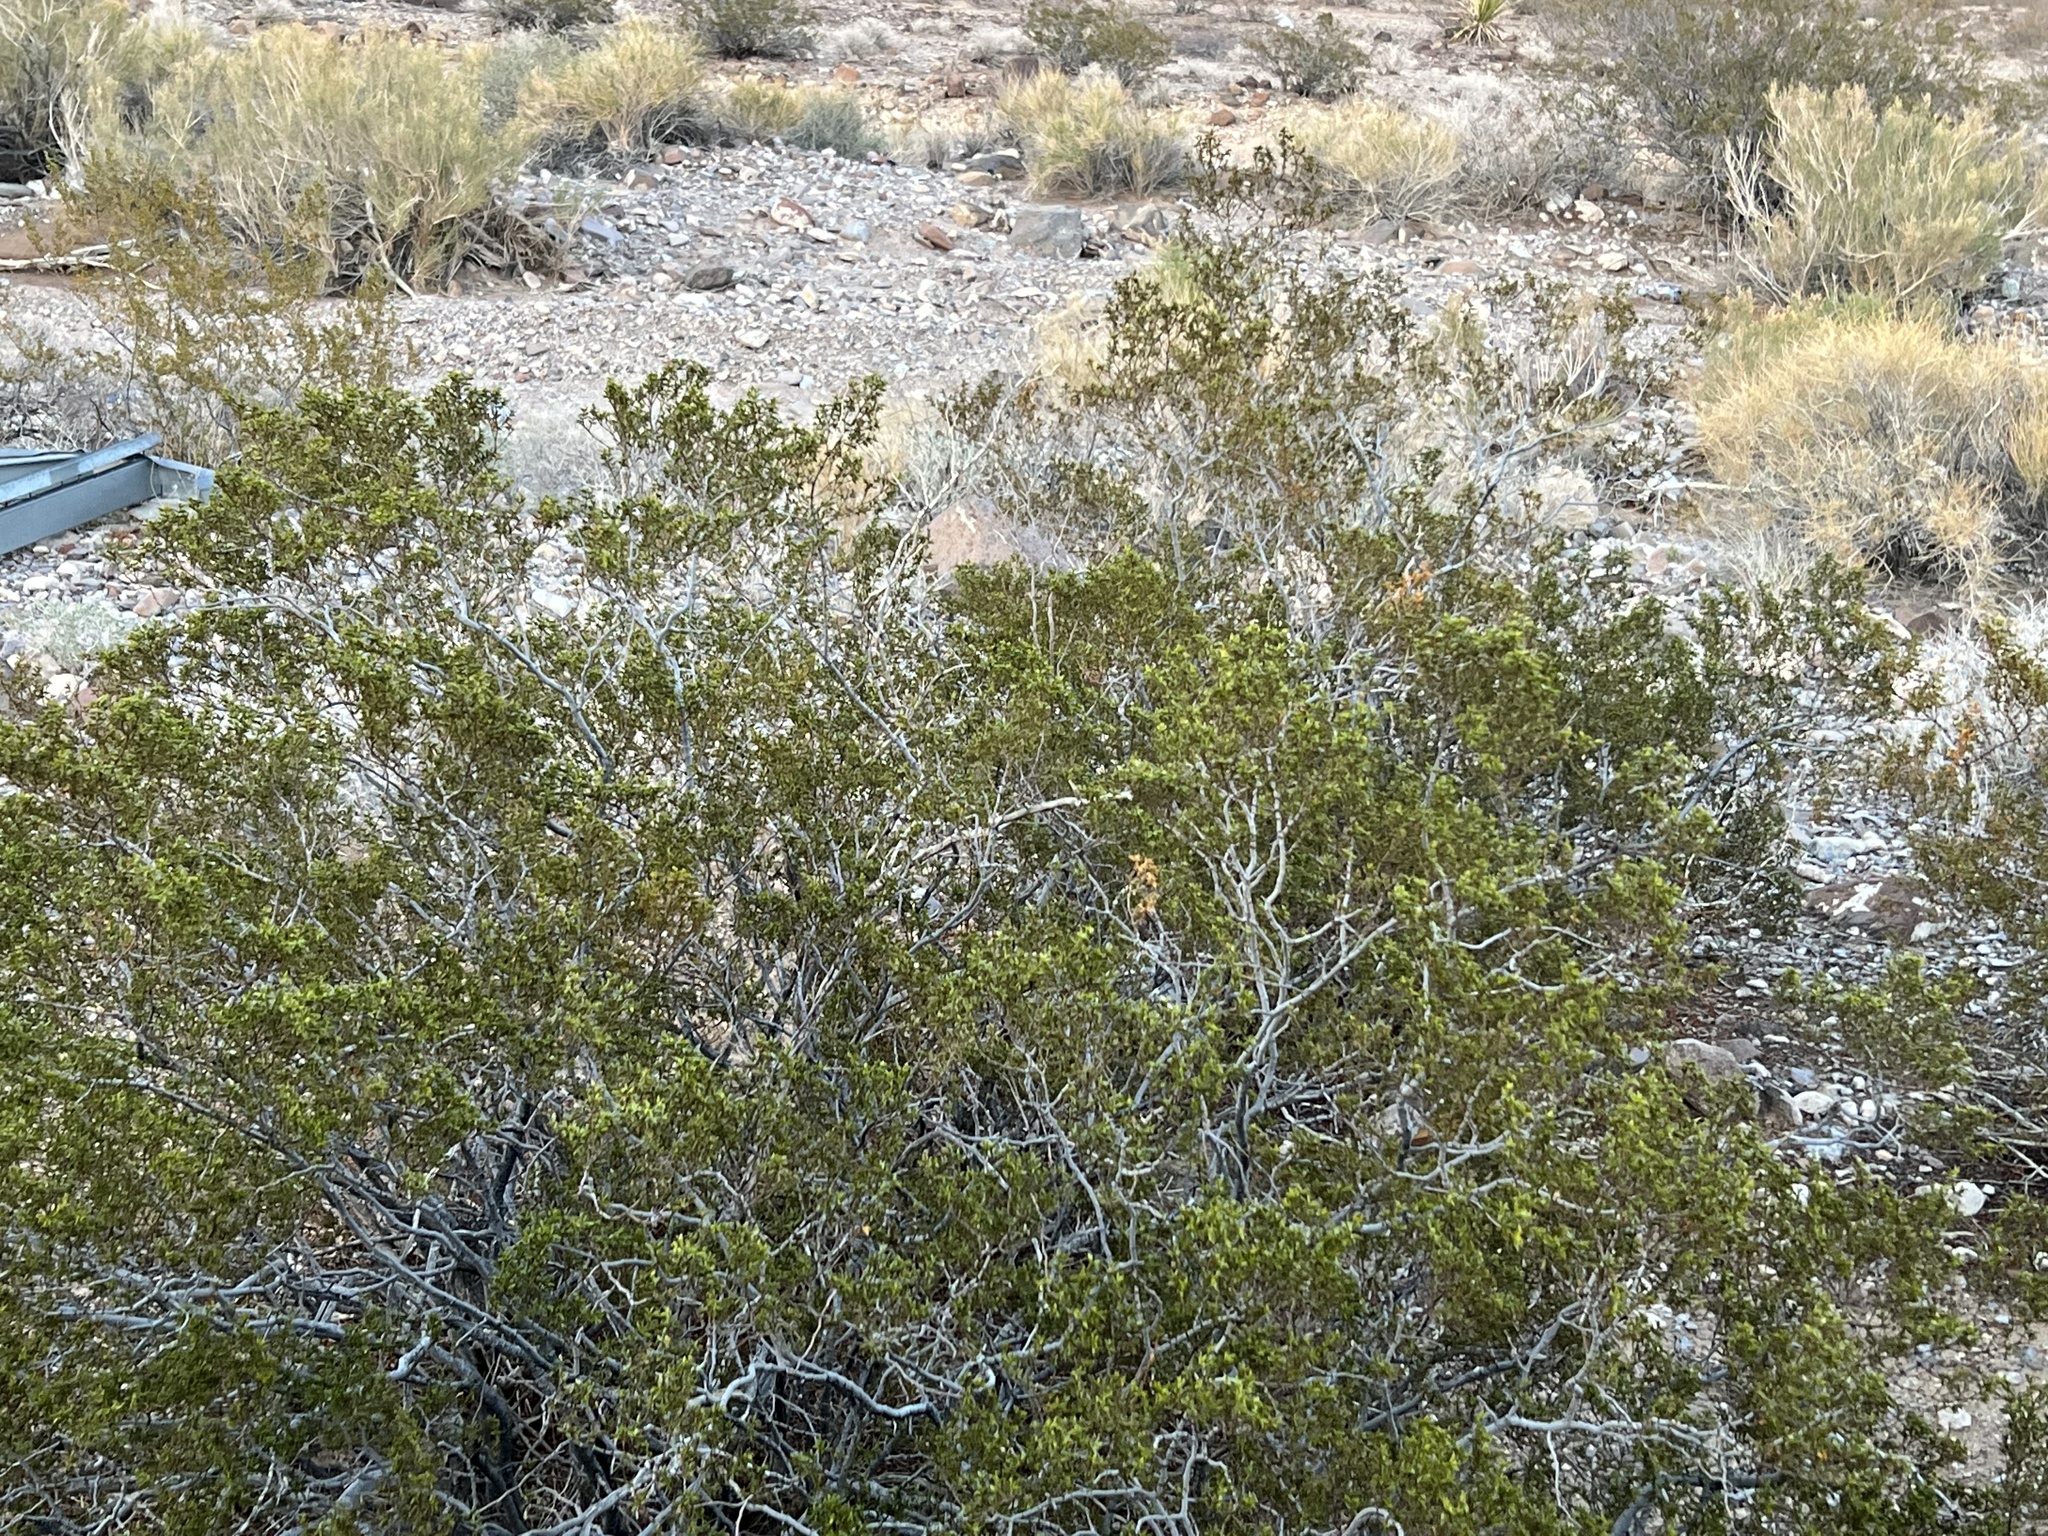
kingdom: Plantae
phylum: Tracheophyta
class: Magnoliopsida
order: Zygophyllales
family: Zygophyllaceae
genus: Larrea
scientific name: Larrea tridentata
